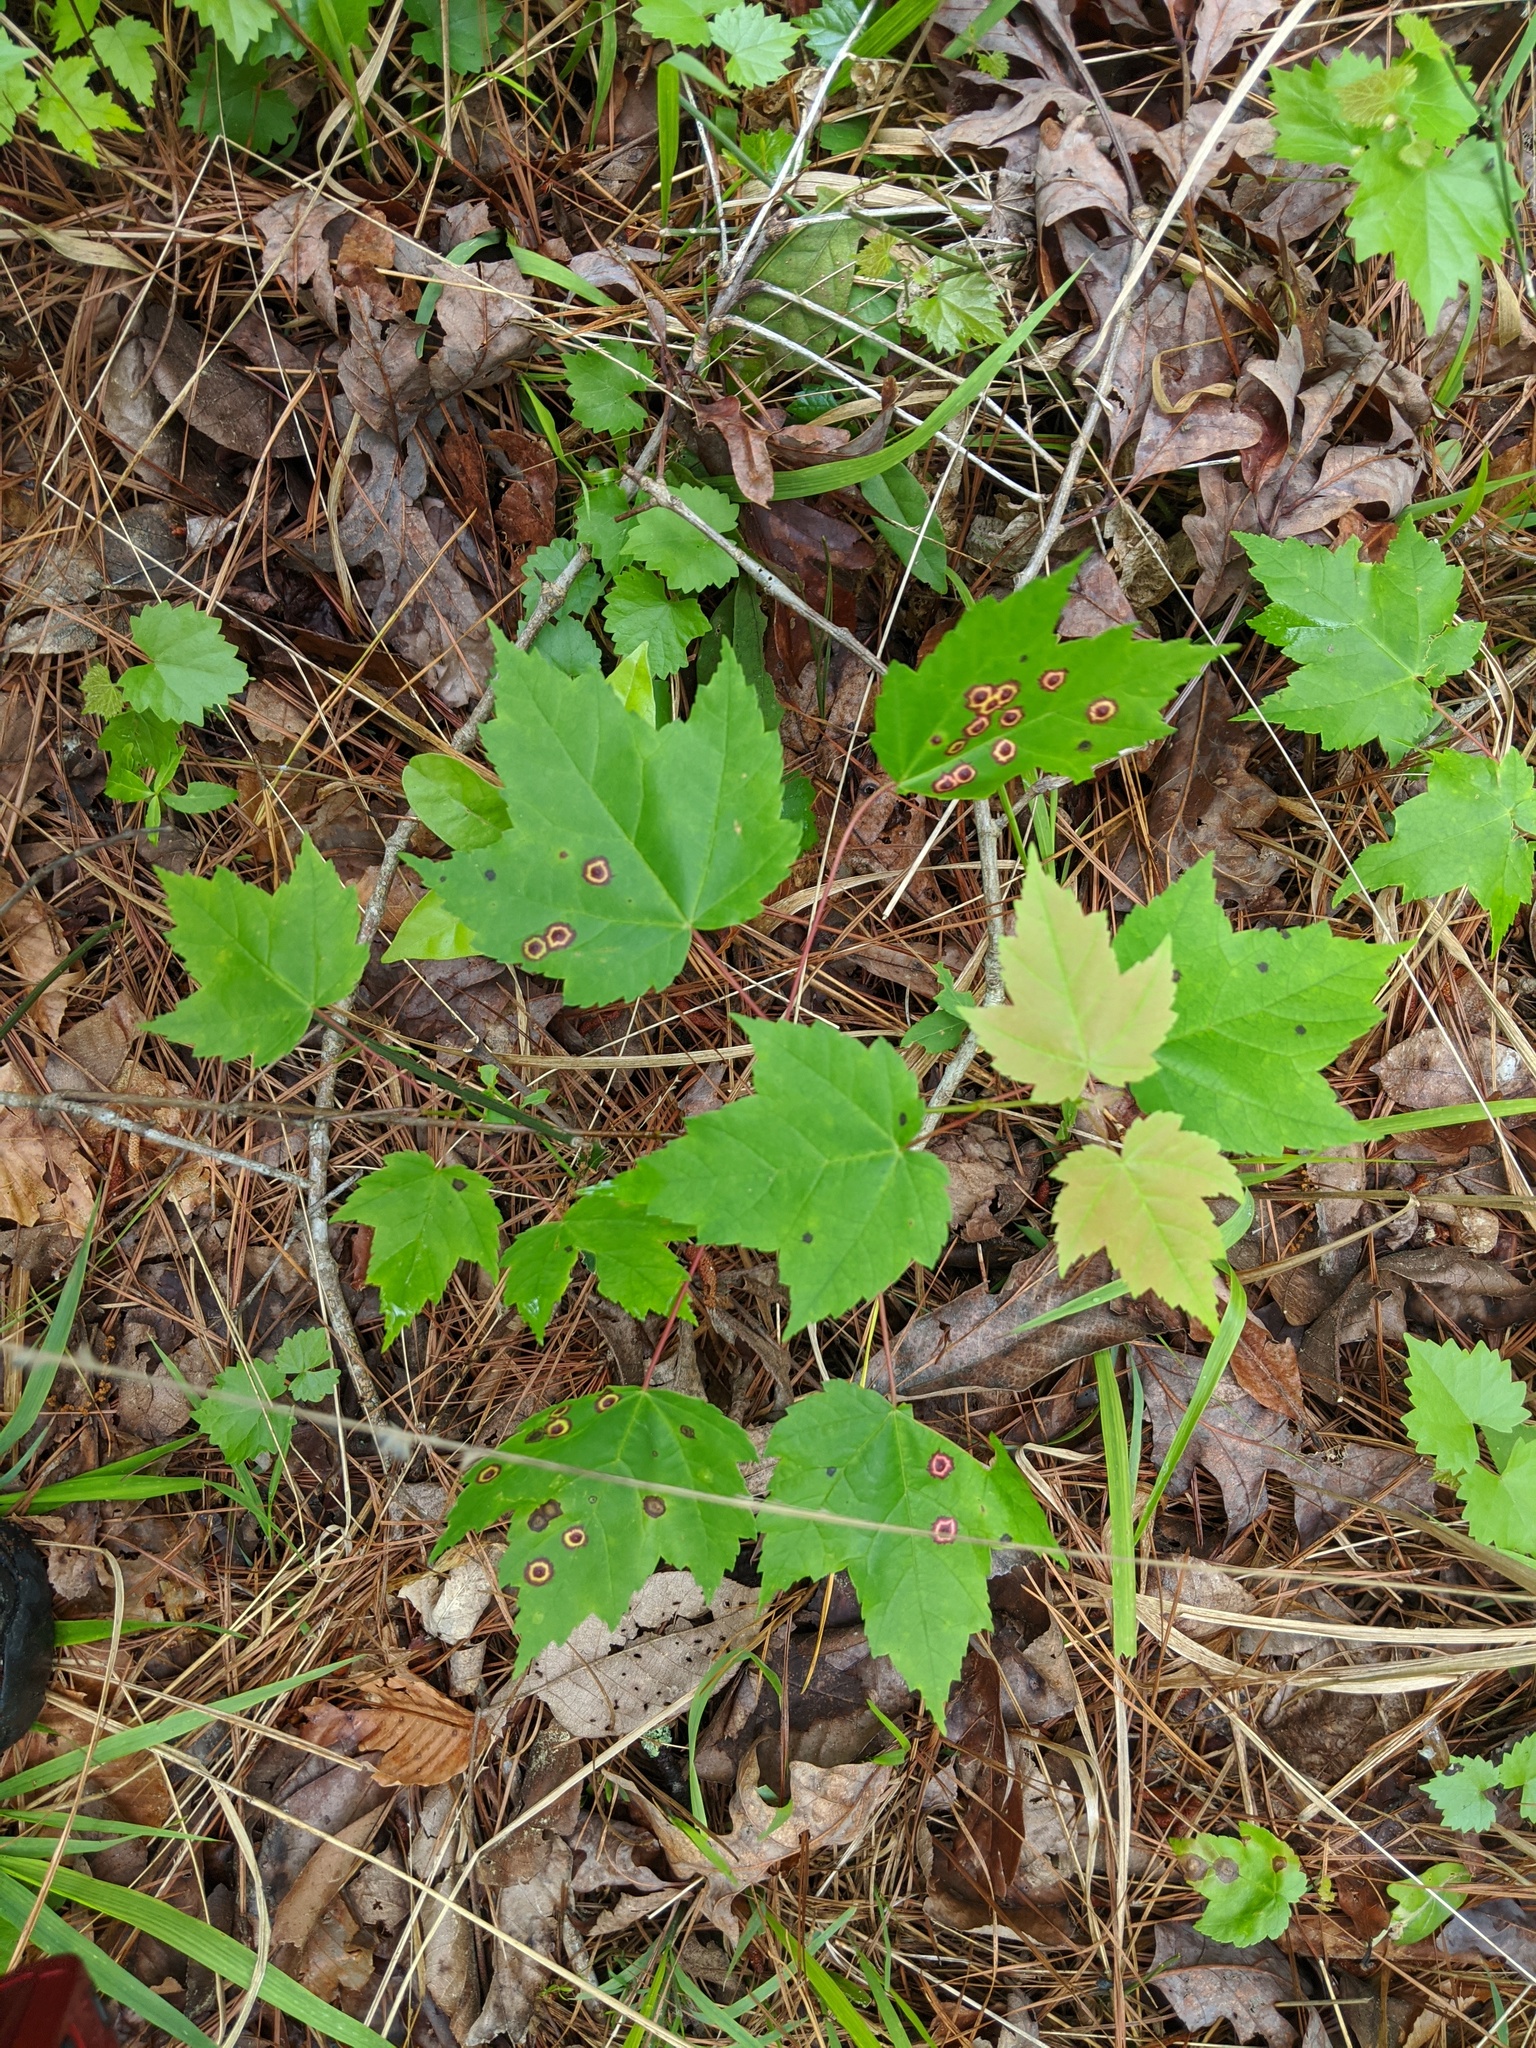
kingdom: Plantae
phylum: Tracheophyta
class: Magnoliopsida
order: Sapindales
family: Sapindaceae
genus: Acer
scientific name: Acer rubrum
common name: Red maple
